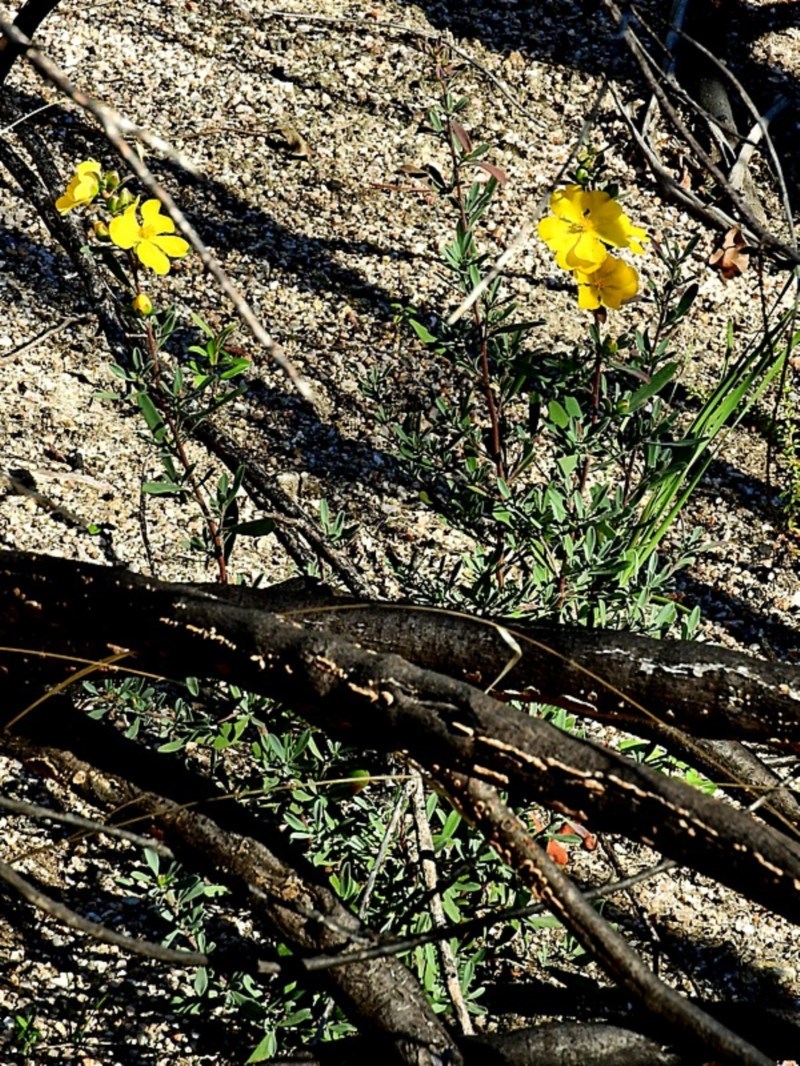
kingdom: Plantae
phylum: Tracheophyta
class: Magnoliopsida
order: Dilleniales
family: Dilleniaceae
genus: Hibbertia
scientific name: Hibbertia obtusifolia
